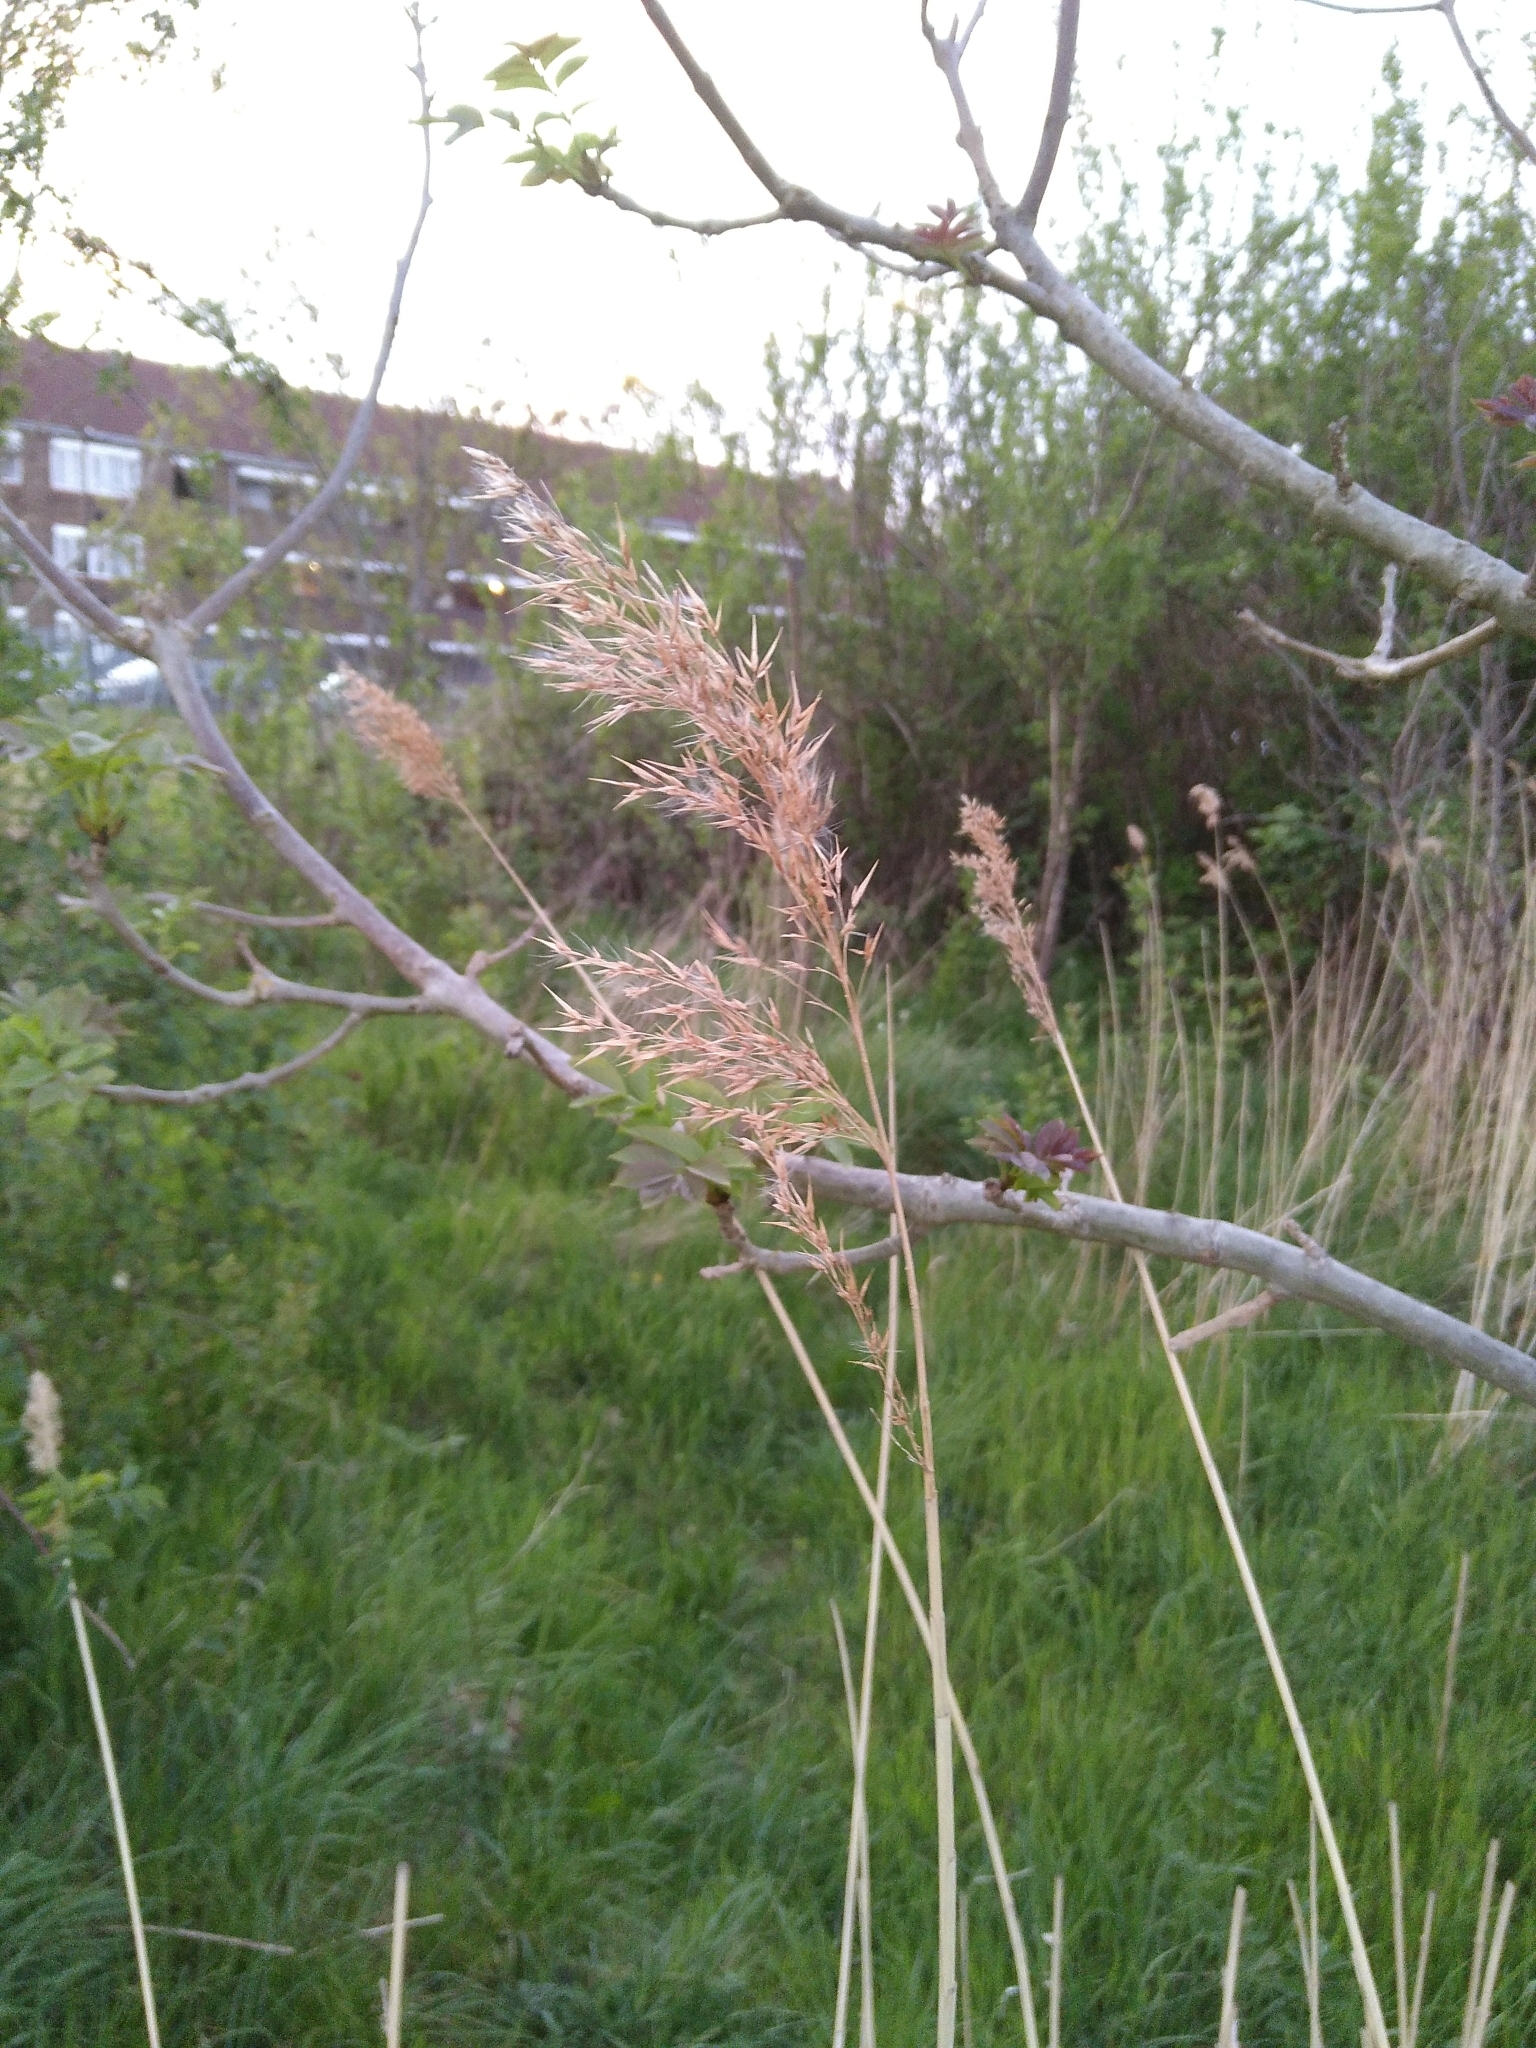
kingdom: Plantae
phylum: Tracheophyta
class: Liliopsida
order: Poales
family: Poaceae
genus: Phragmites
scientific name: Phragmites australis
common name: Common reed
